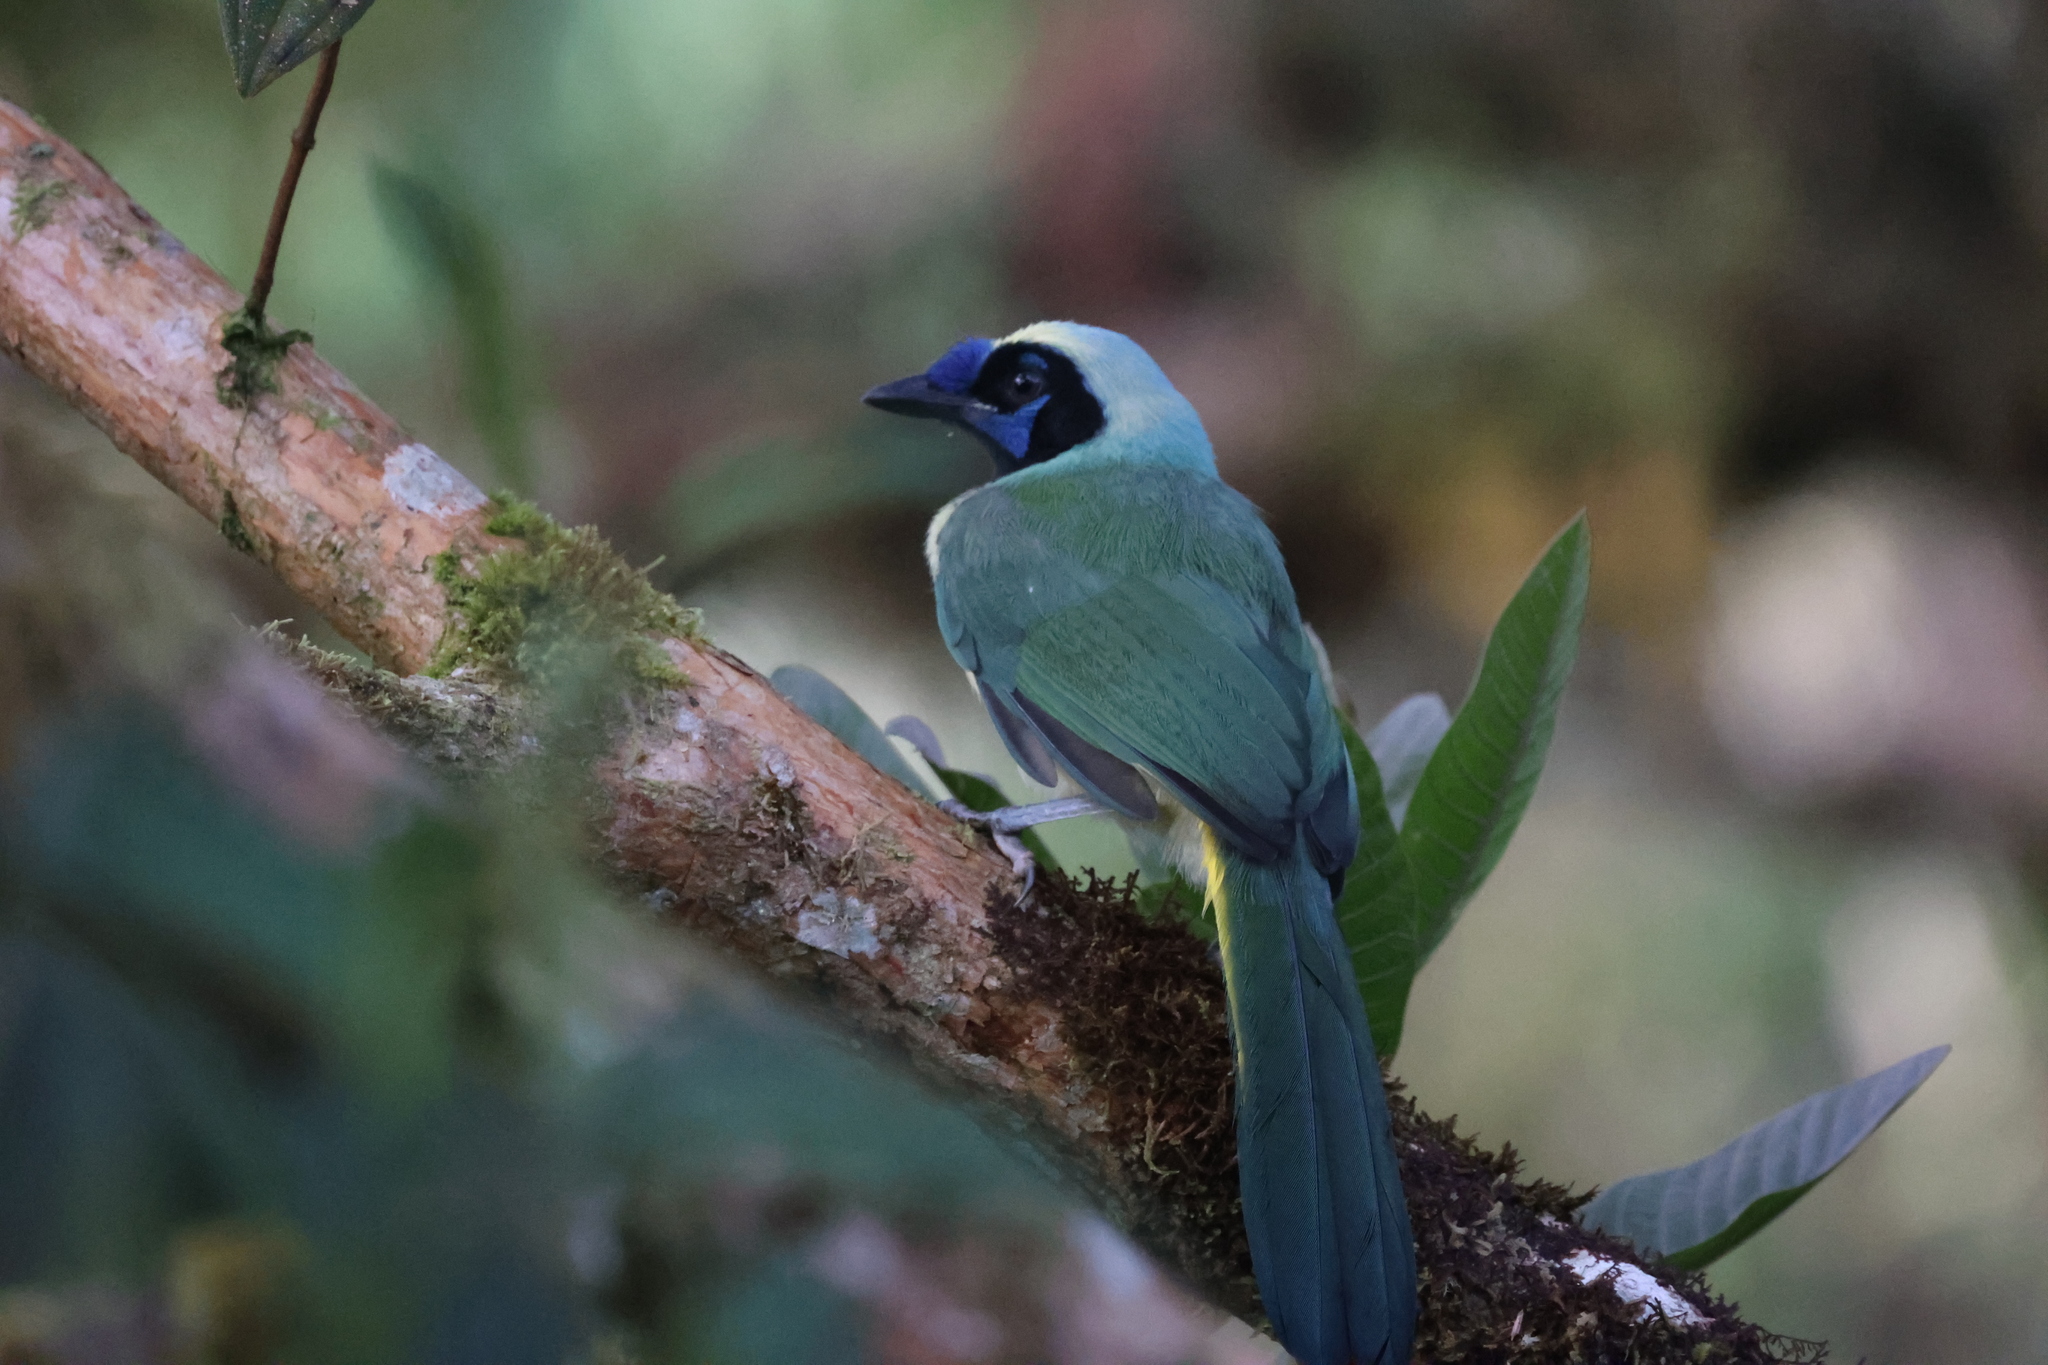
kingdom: Animalia
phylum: Chordata
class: Aves
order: Passeriformes
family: Corvidae
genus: Cyanocorax
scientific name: Cyanocorax yncas
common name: Green jay
